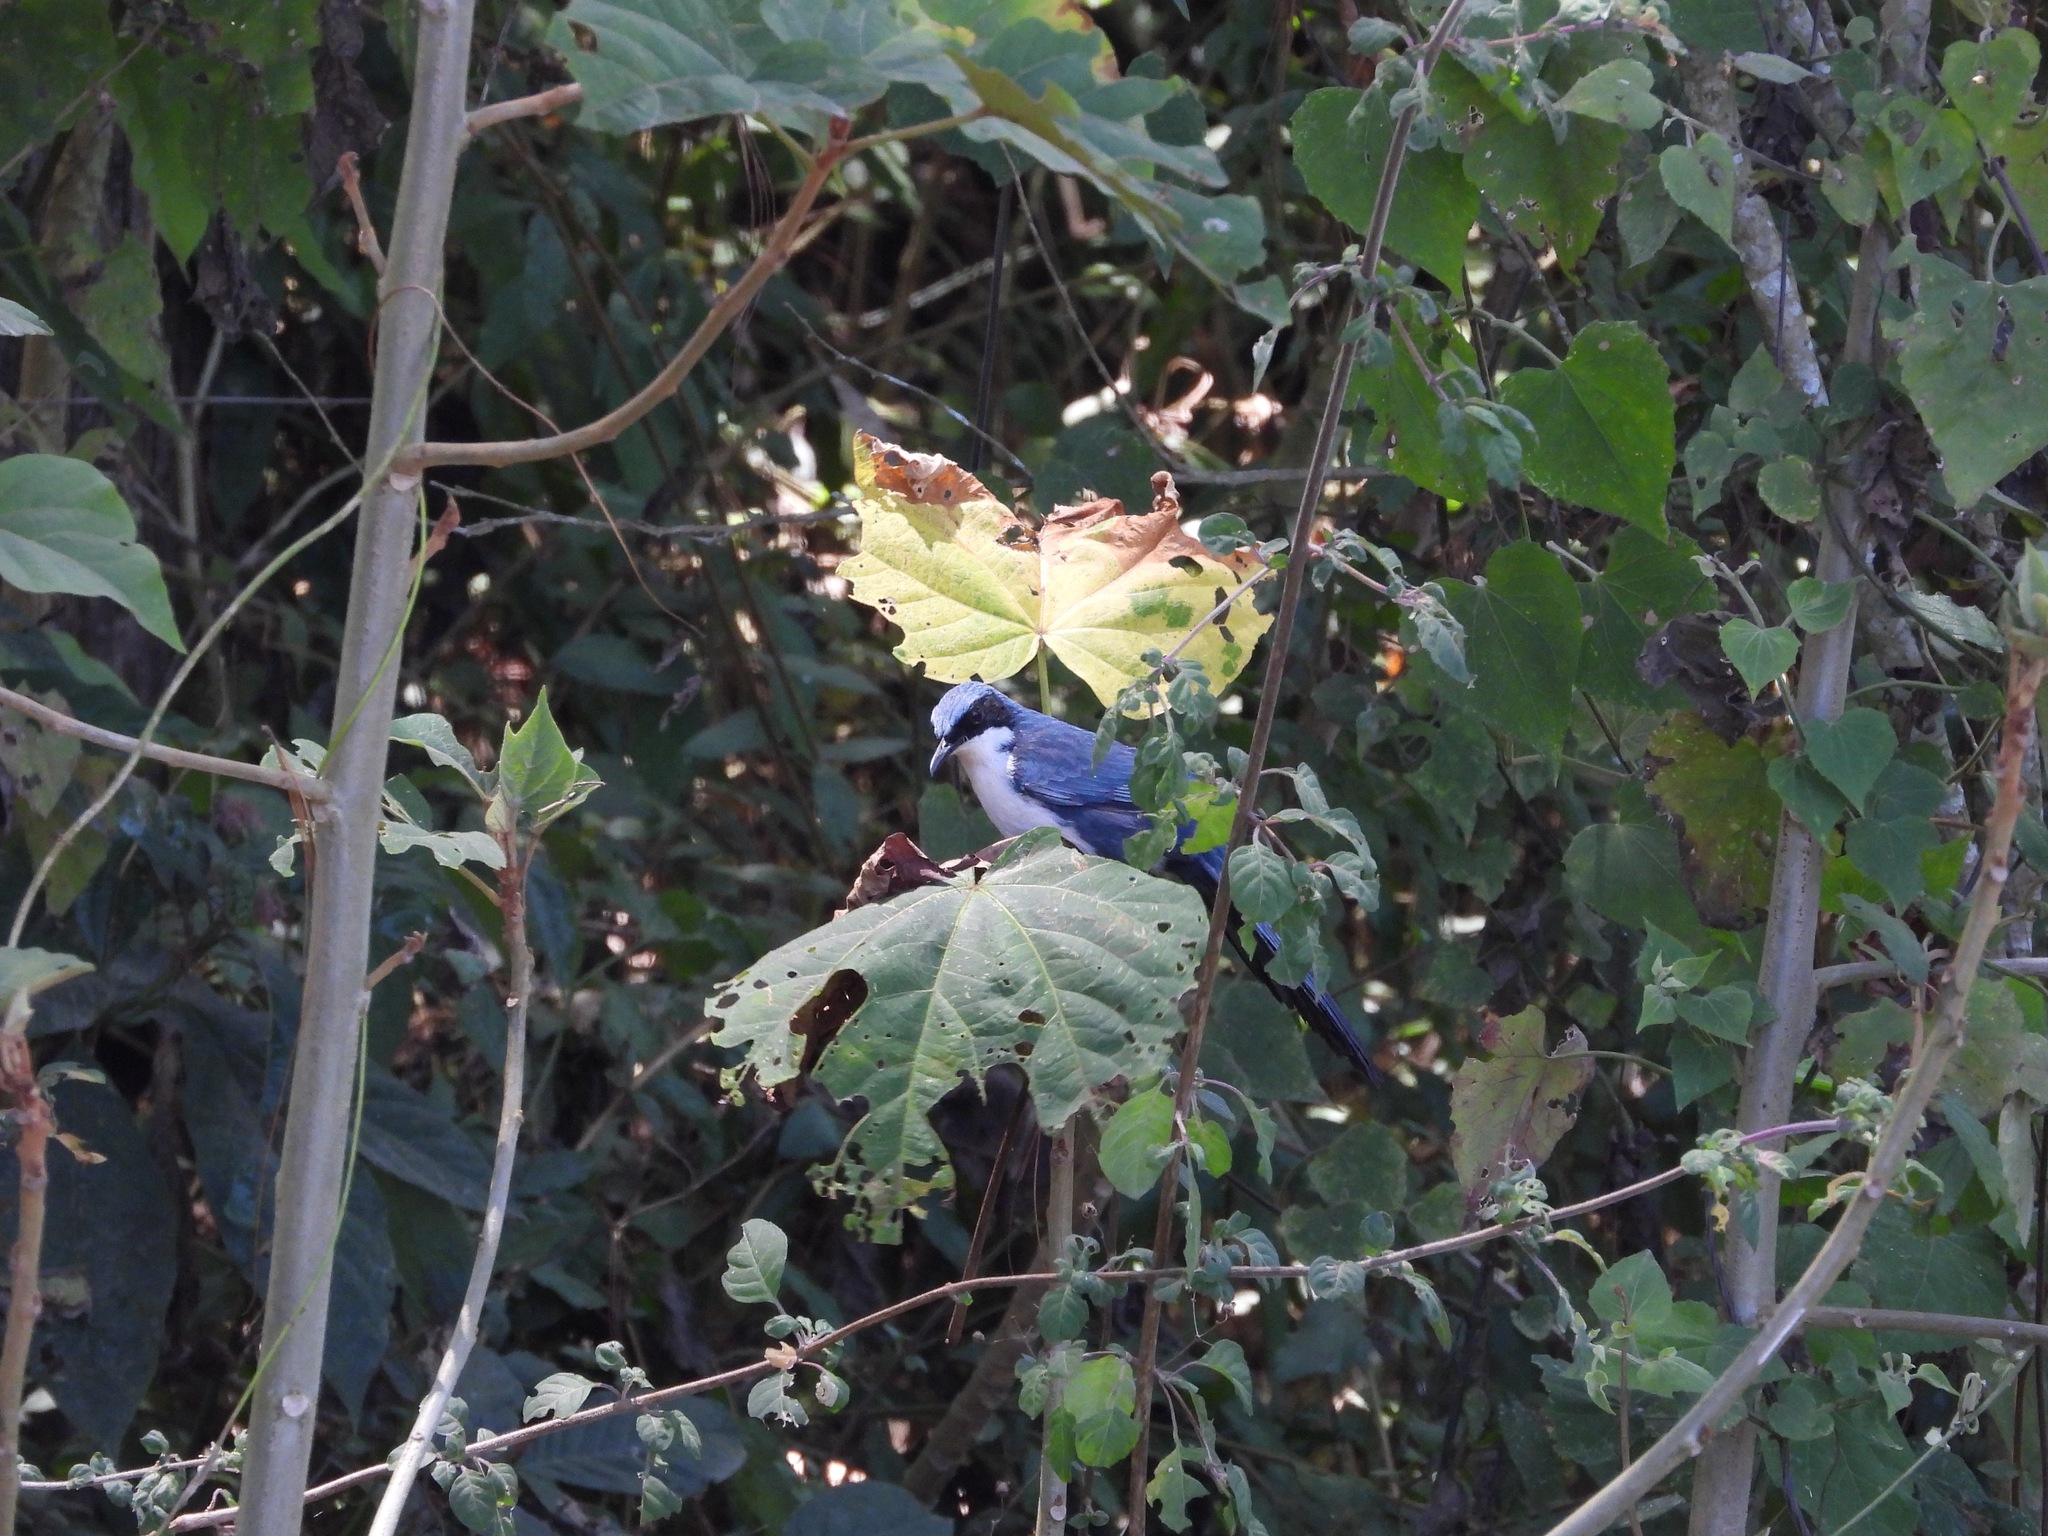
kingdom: Animalia
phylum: Chordata
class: Aves
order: Passeriformes
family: Mimidae
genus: Melanotis
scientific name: Melanotis hypoleucus
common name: Blue-and-white mockingbird
